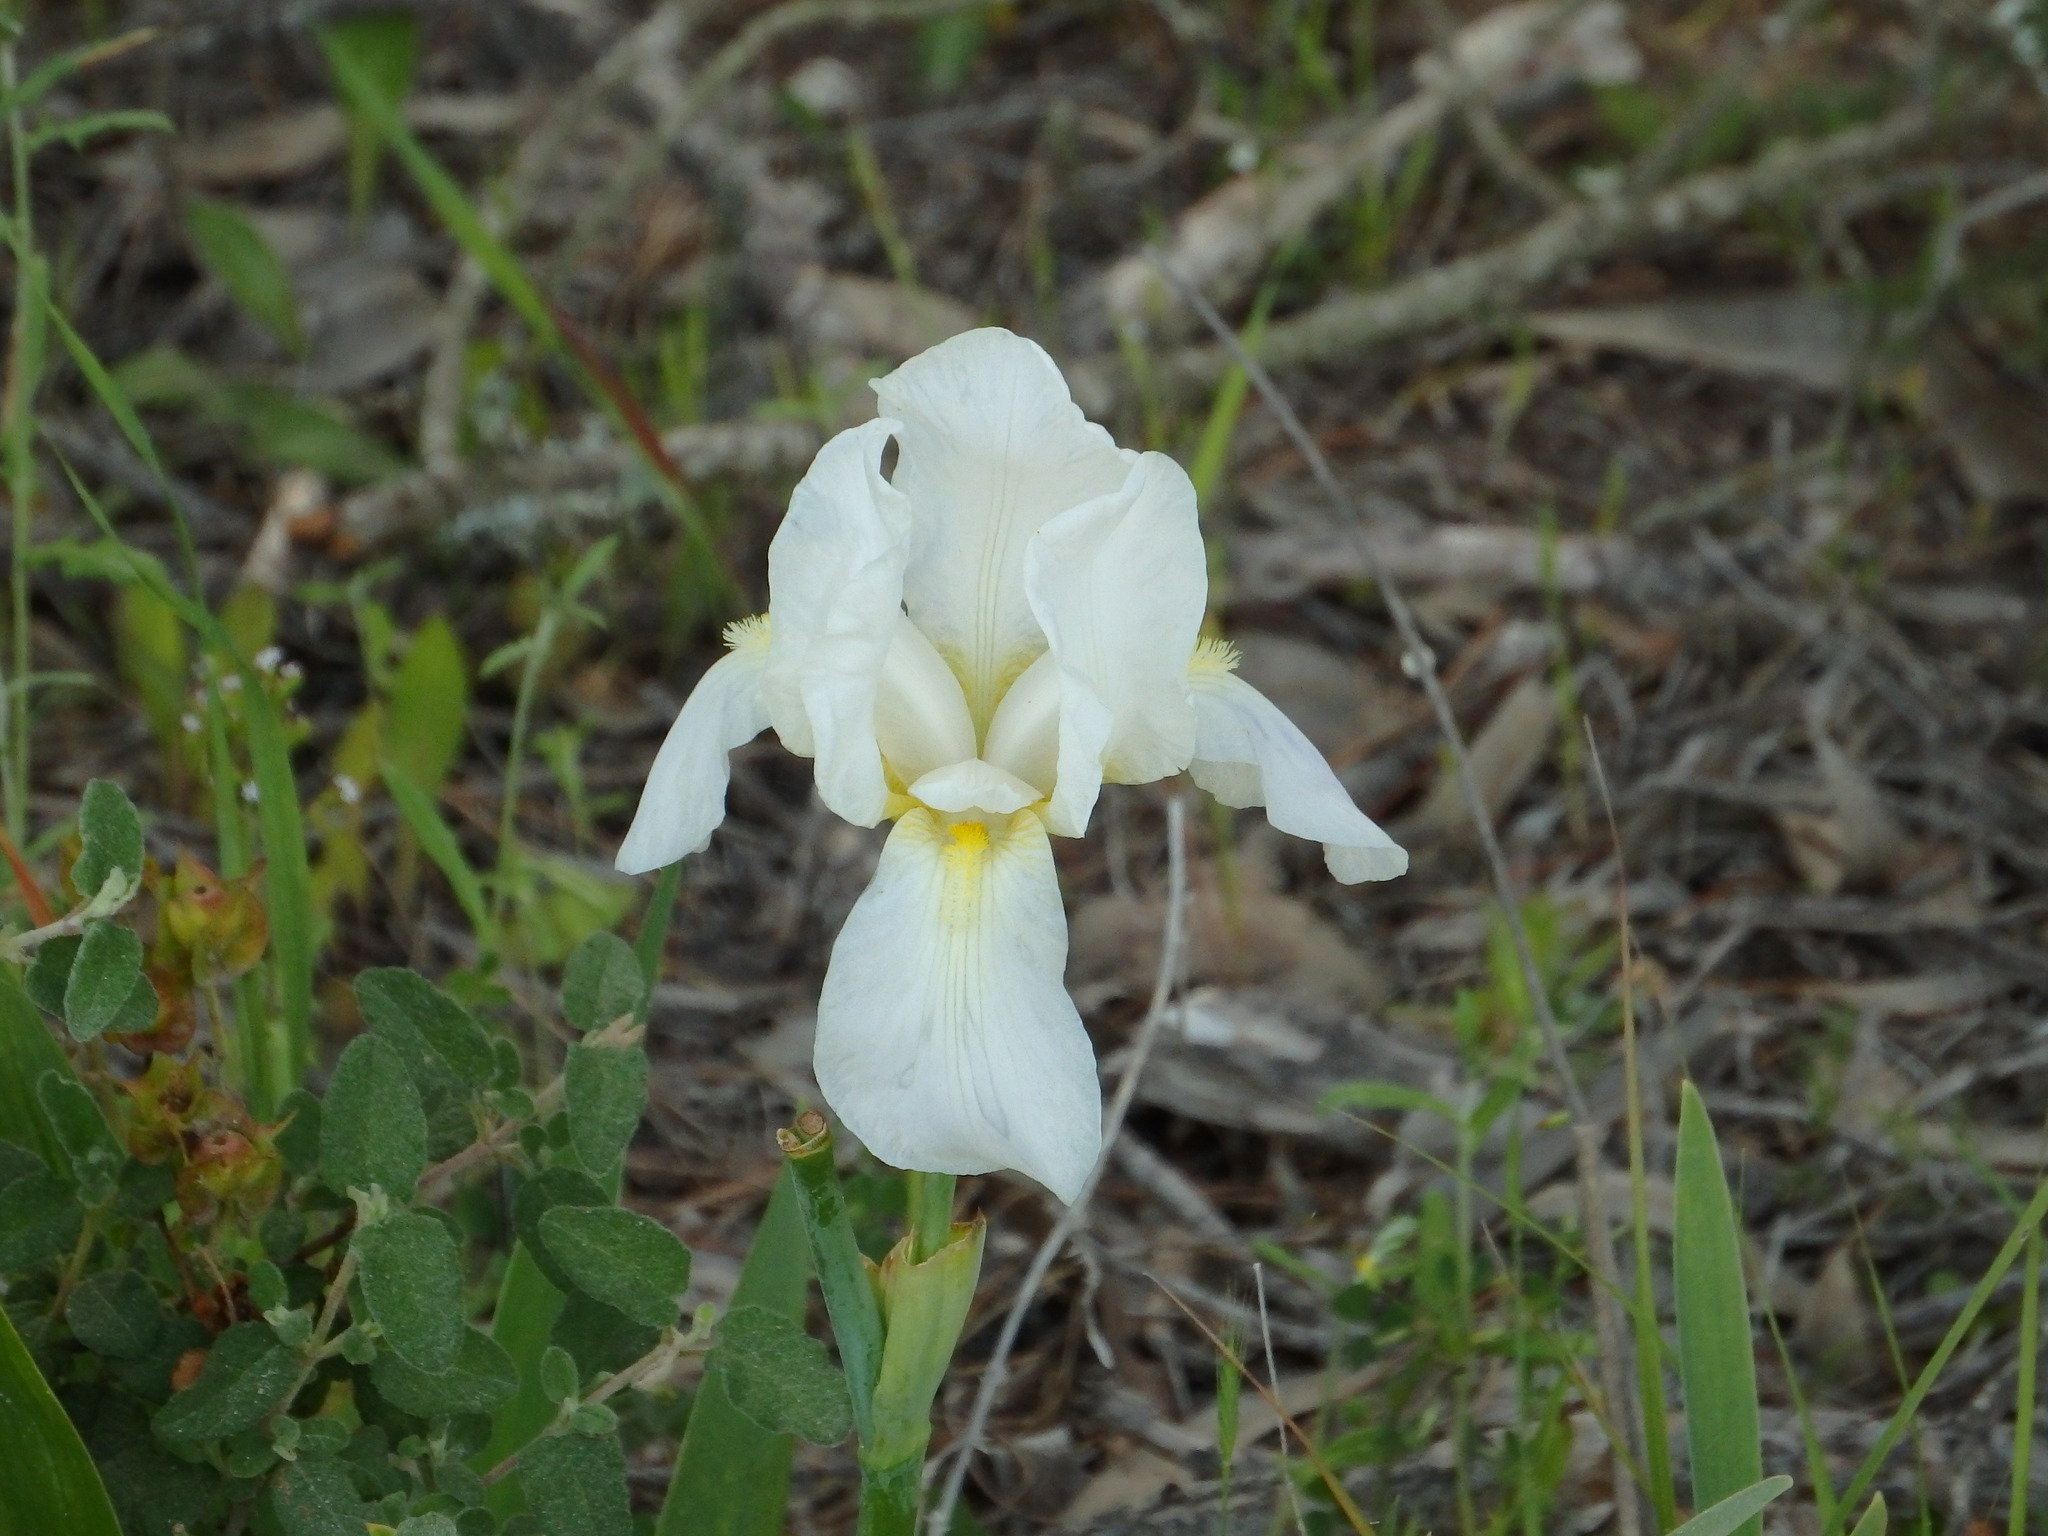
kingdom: Plantae
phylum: Tracheophyta
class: Liliopsida
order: Asparagales
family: Iridaceae
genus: Iris
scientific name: Iris florentina
